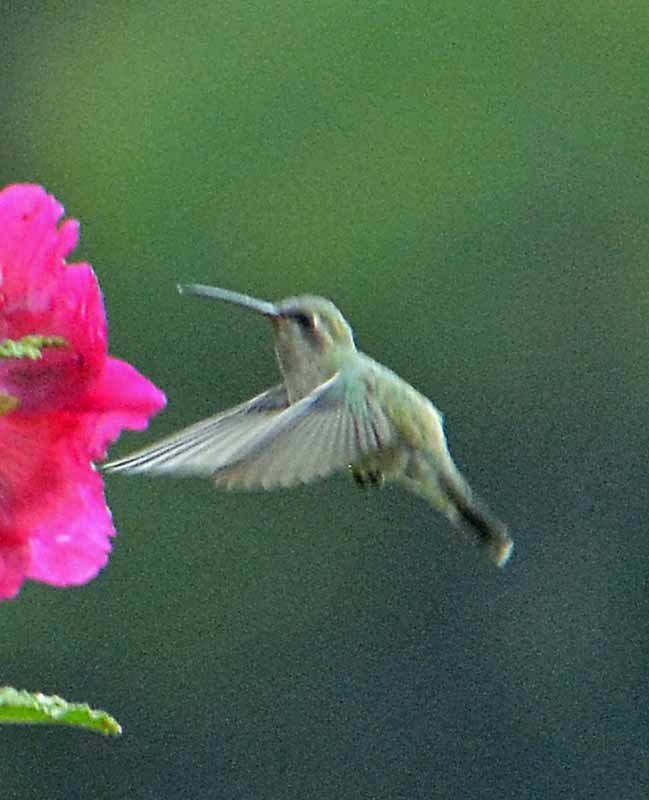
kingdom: Animalia
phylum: Chordata
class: Aves
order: Apodiformes
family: Trochilidae
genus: Cynanthus
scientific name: Cynanthus latirostris
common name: Broad-billed hummingbird
